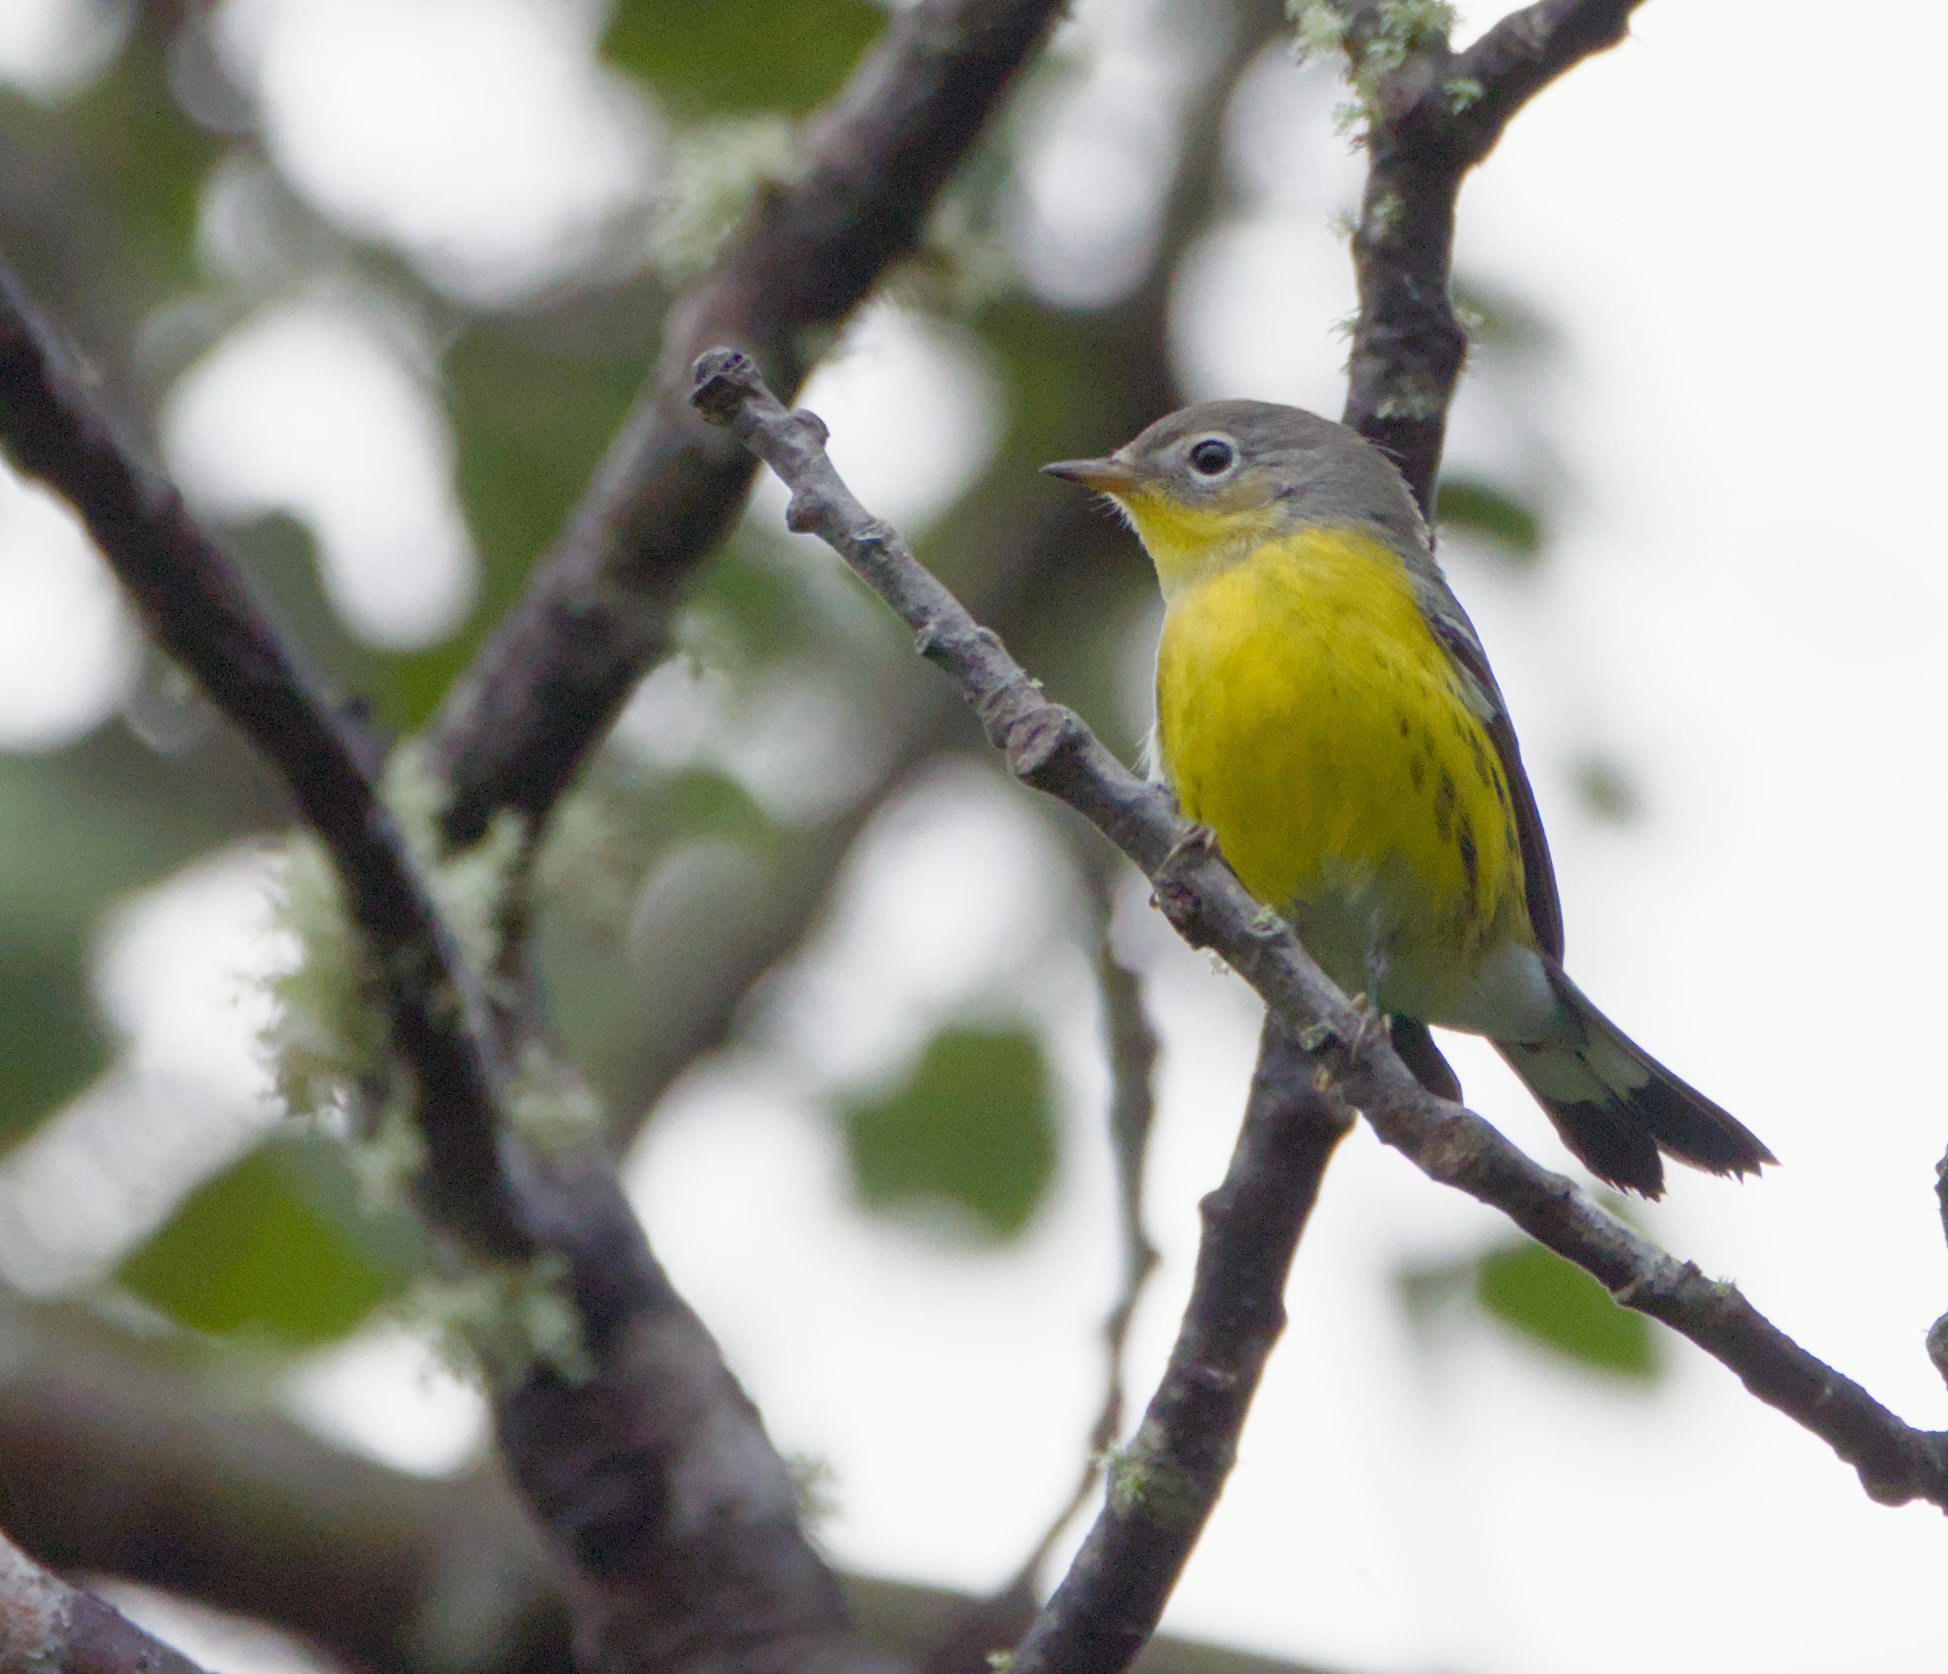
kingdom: Animalia
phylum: Chordata
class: Aves
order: Passeriformes
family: Parulidae
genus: Setophaga
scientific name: Setophaga magnolia
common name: Magnolia warbler
